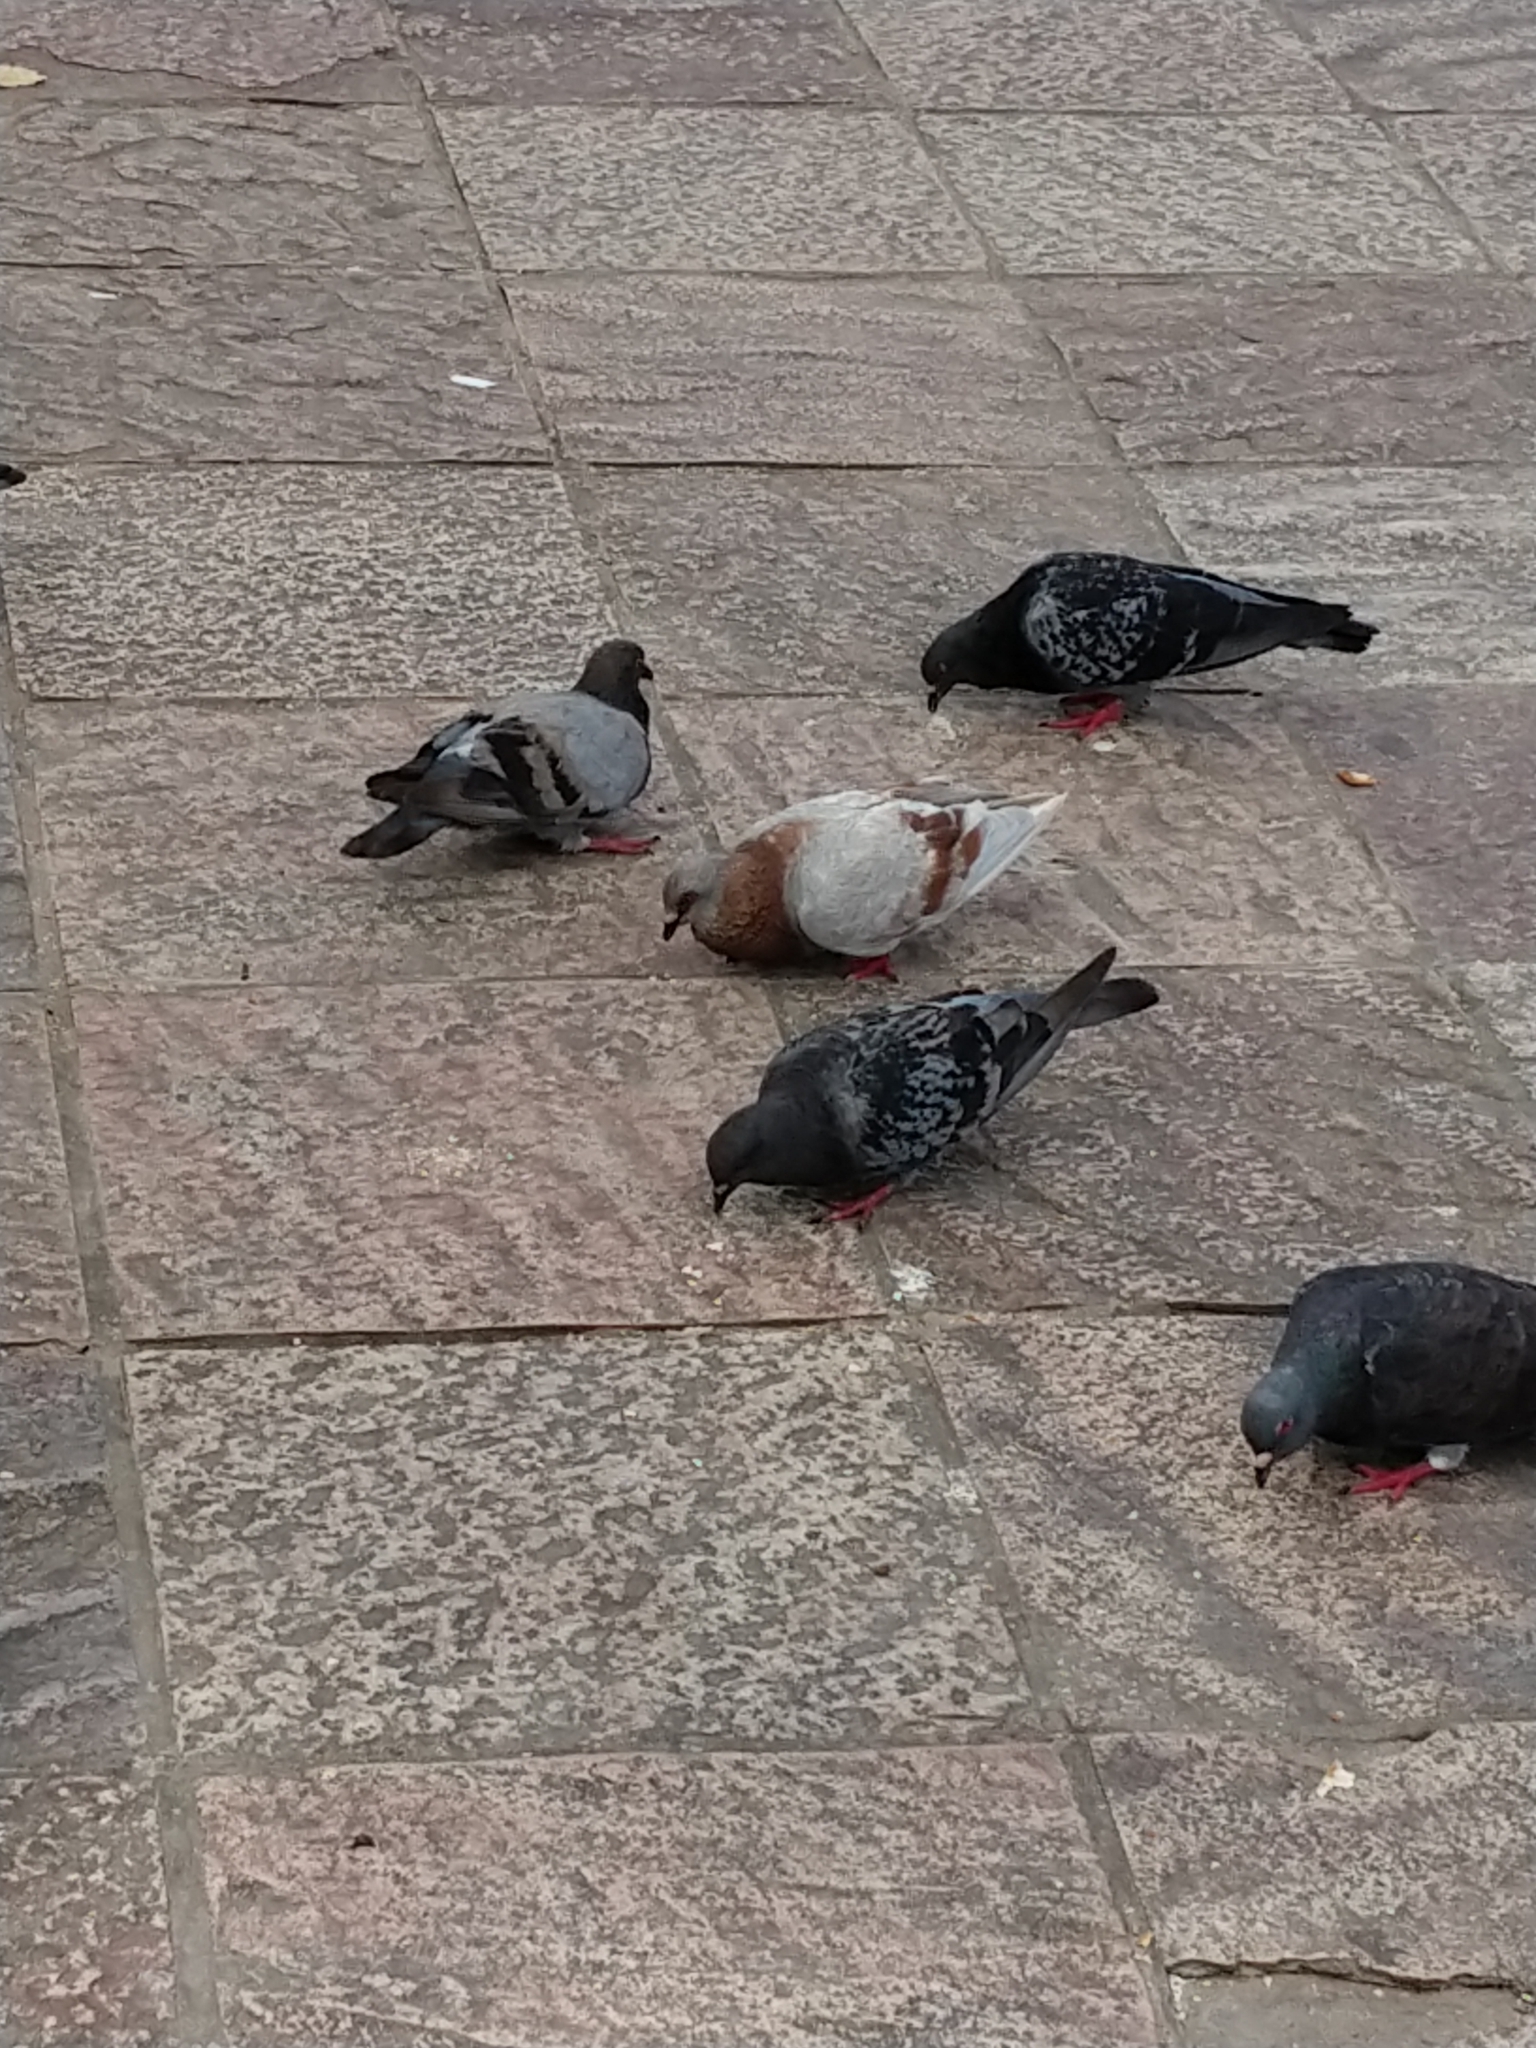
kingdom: Animalia
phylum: Chordata
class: Aves
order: Columbiformes
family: Columbidae
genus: Columba
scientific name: Columba livia
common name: Rock pigeon
